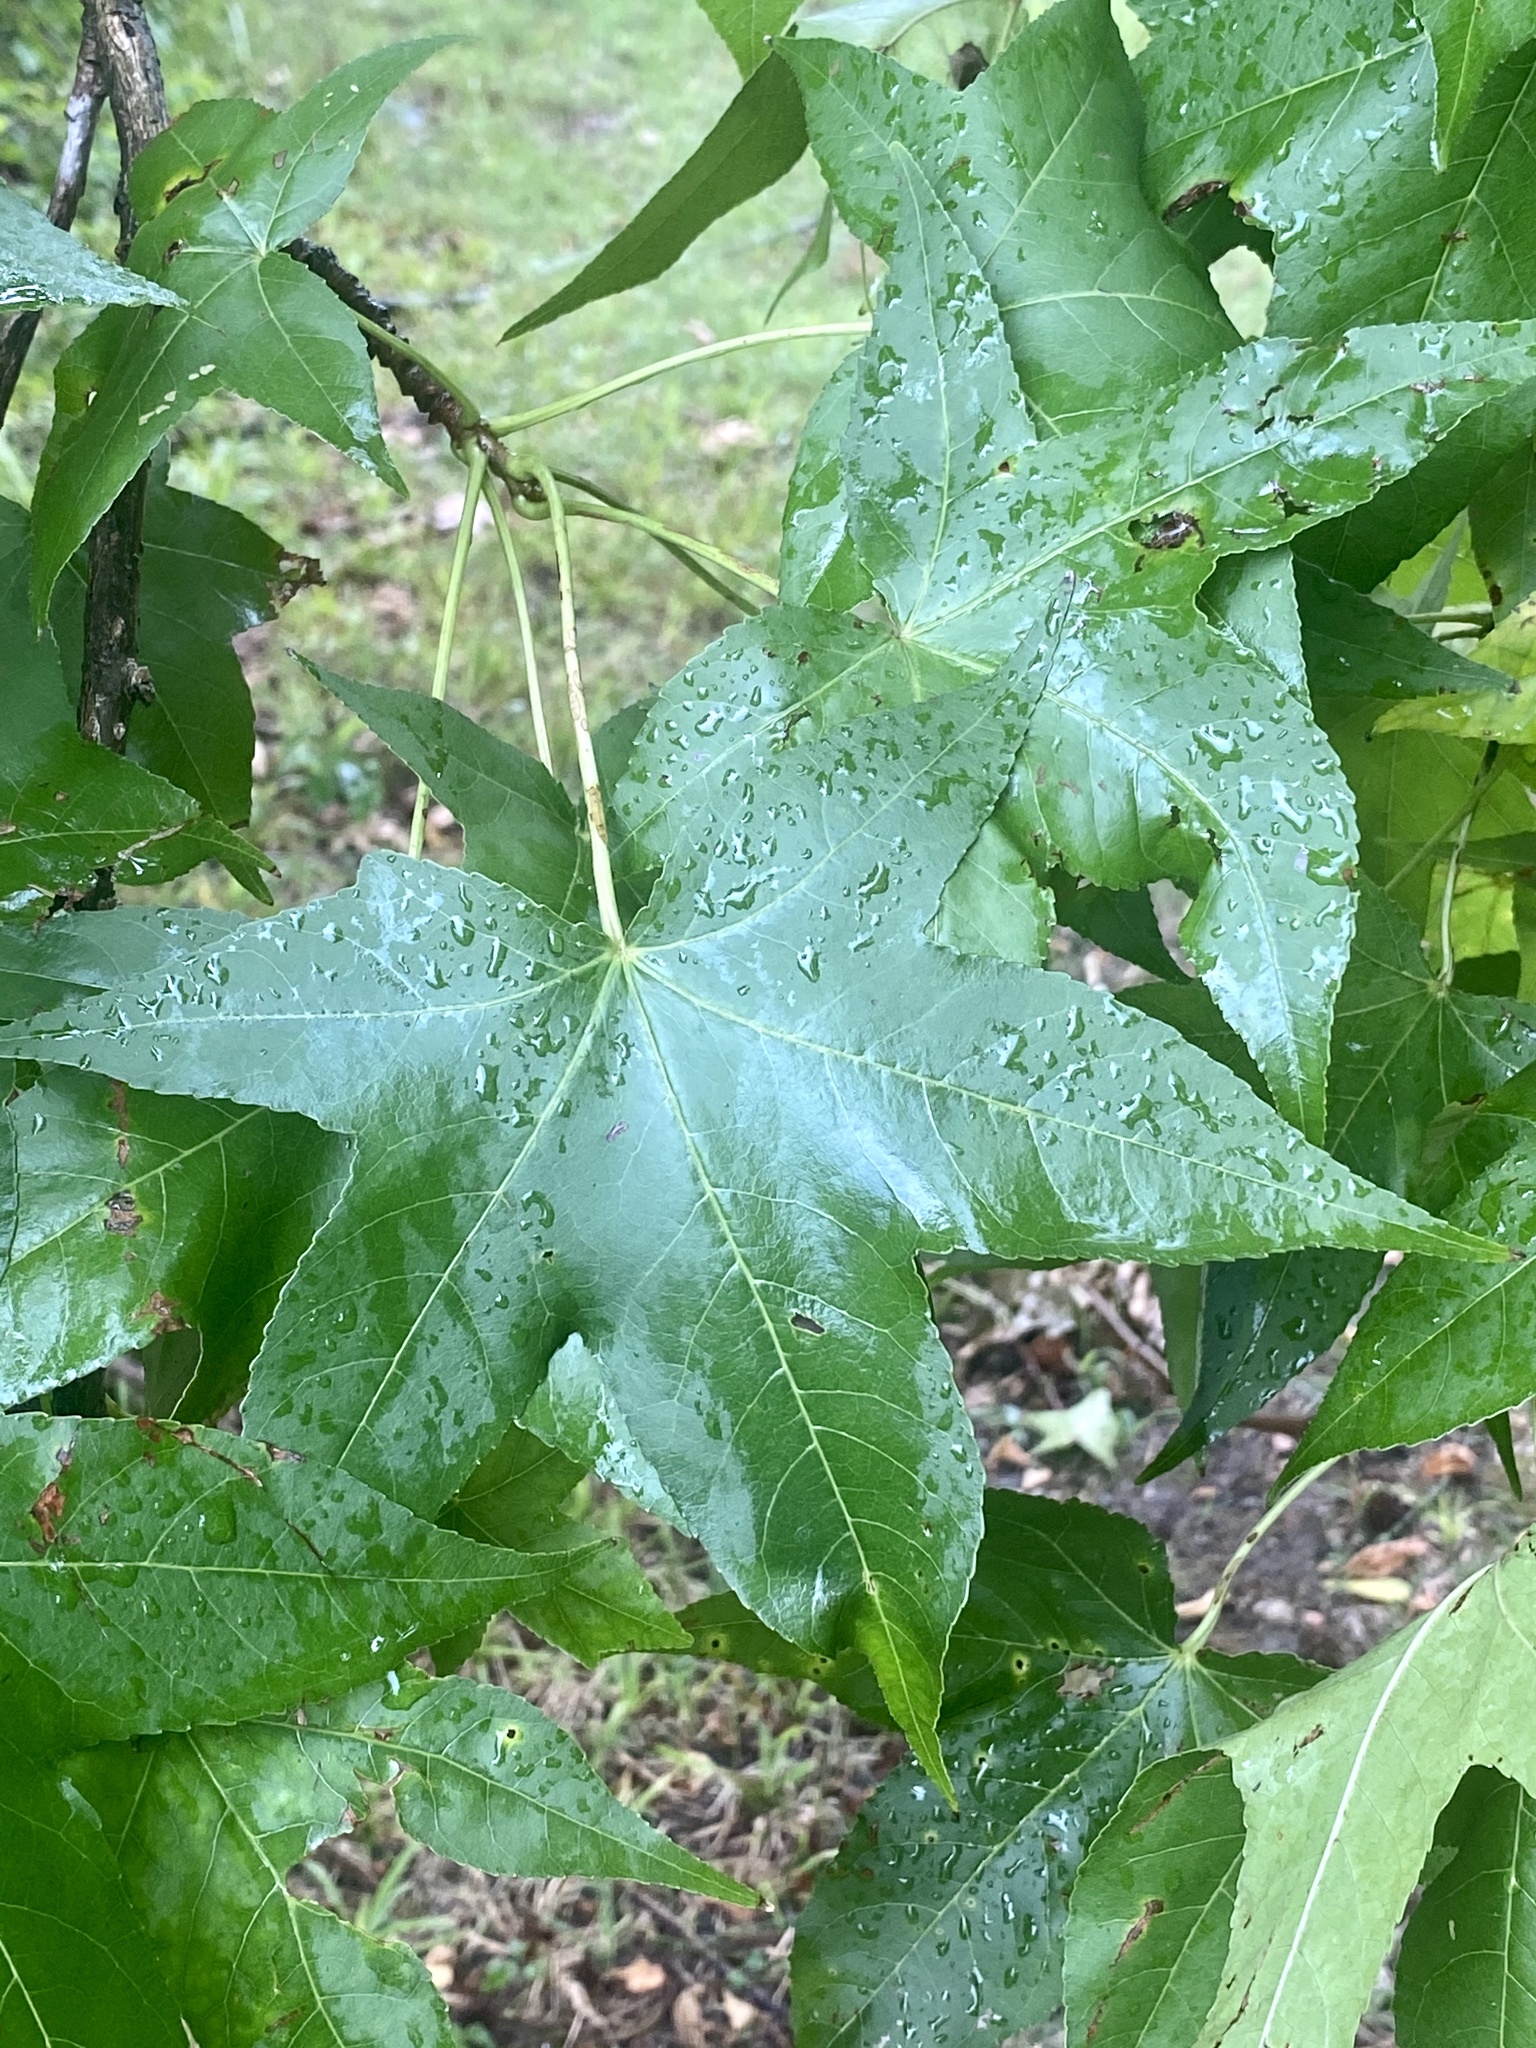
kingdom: Plantae
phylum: Tracheophyta
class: Magnoliopsida
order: Saxifragales
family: Altingiaceae
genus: Liquidambar
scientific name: Liquidambar styraciflua
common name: Sweet gum
